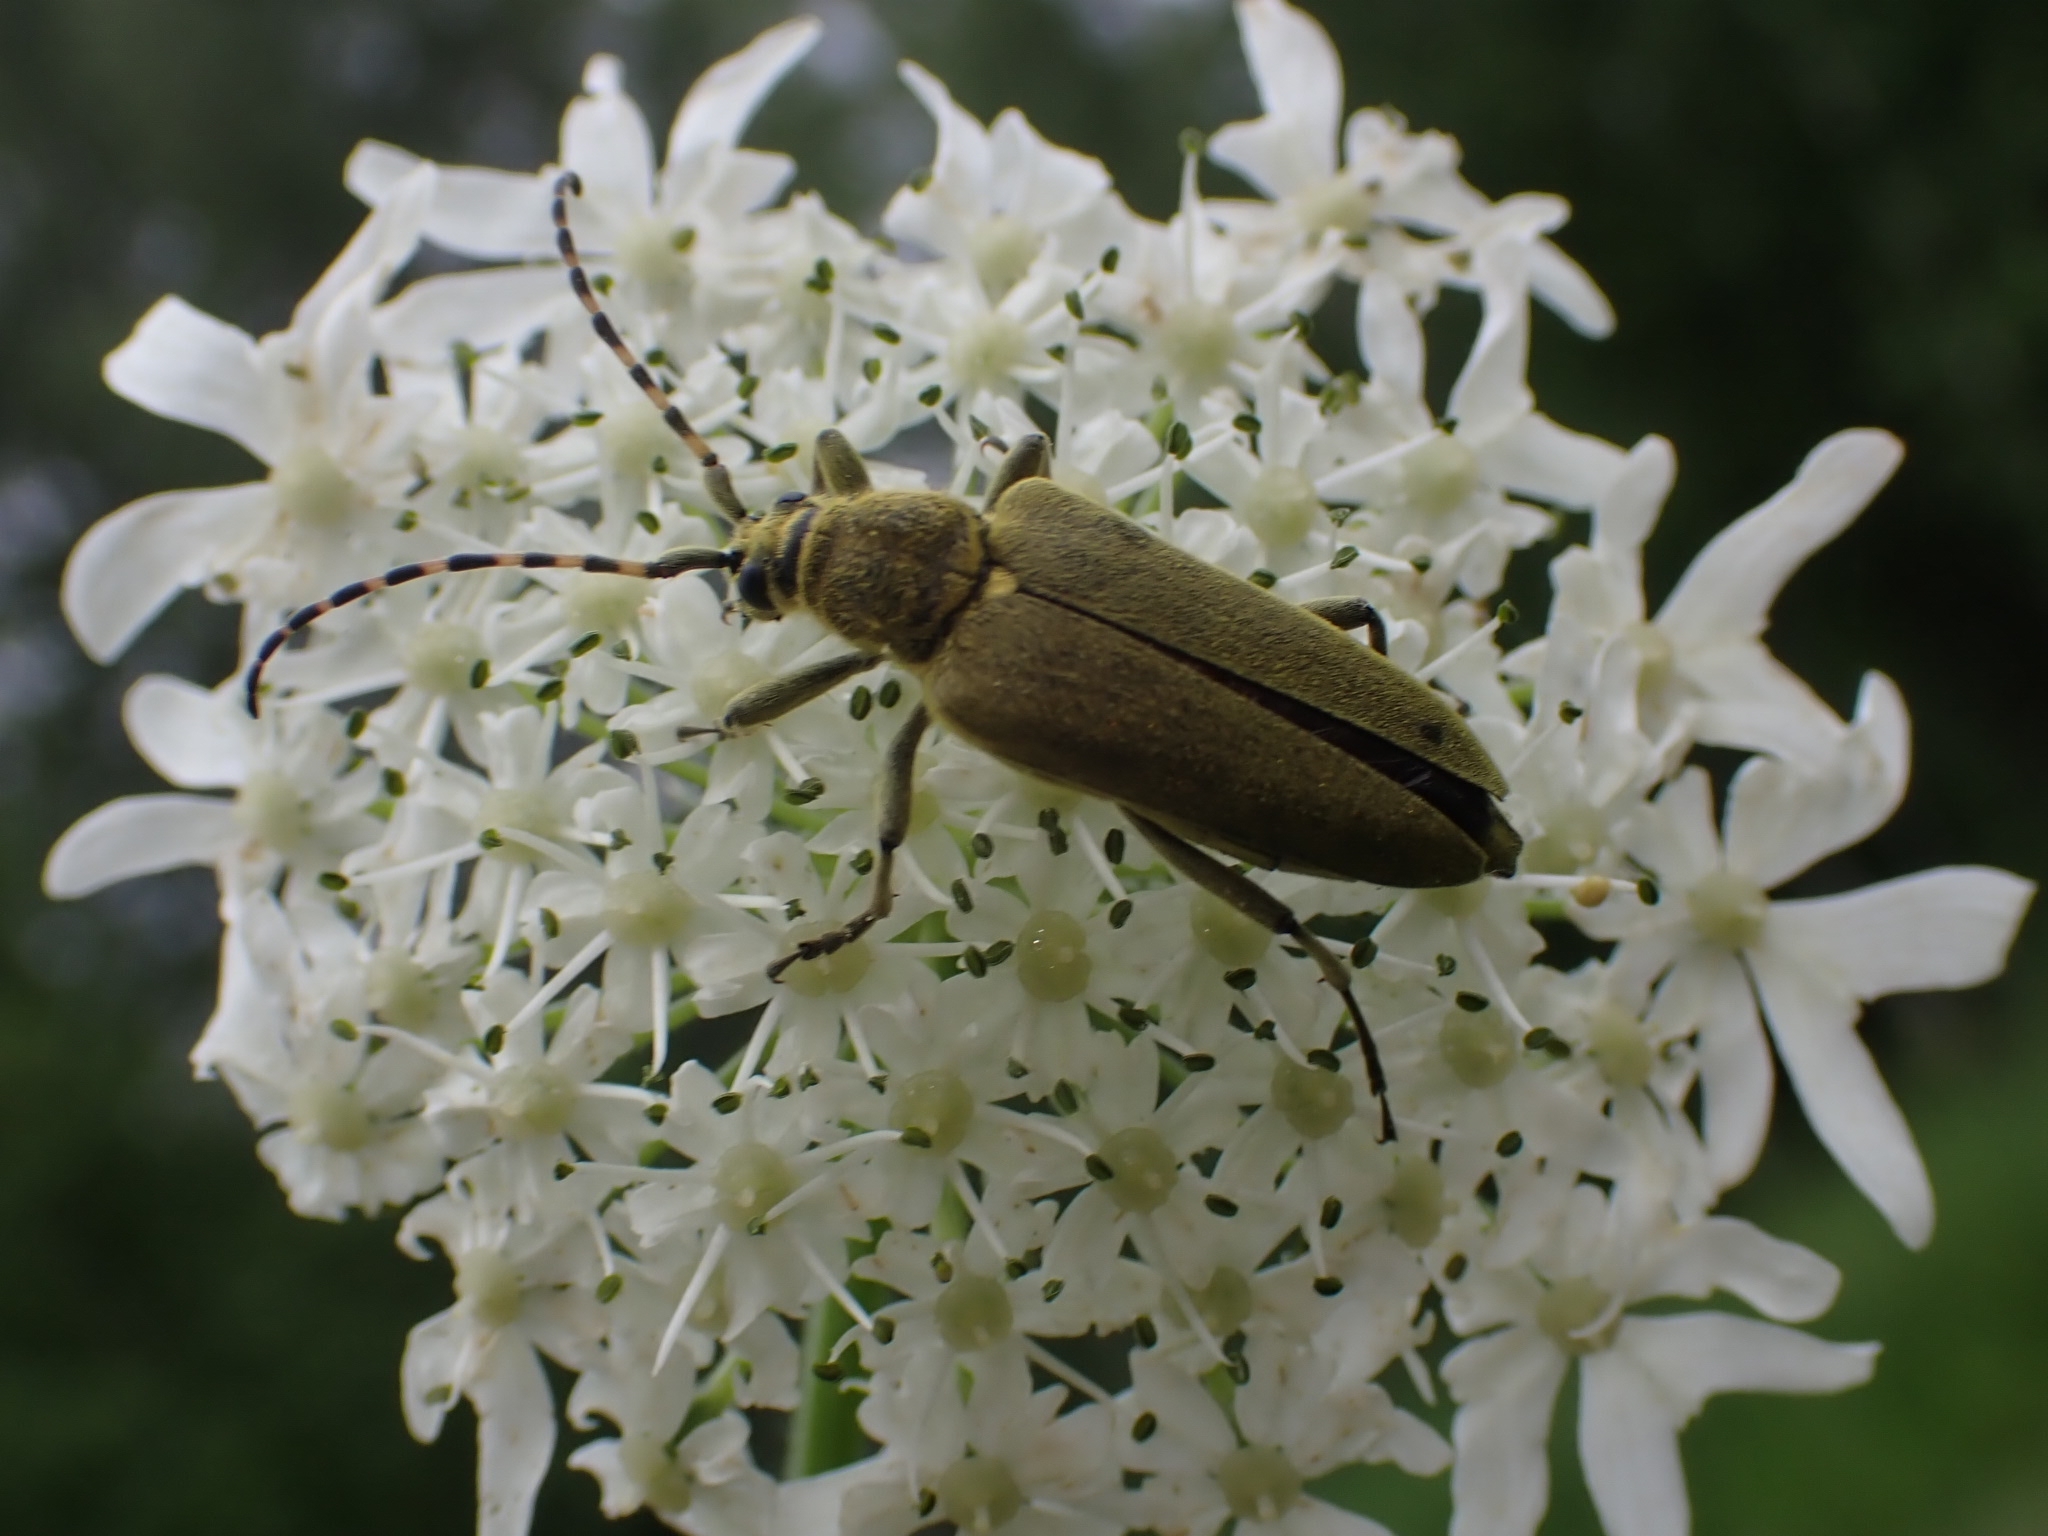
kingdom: Animalia
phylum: Arthropoda
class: Insecta
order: Coleoptera
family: Cerambycidae
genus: Lepturobosca
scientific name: Lepturobosca virens
